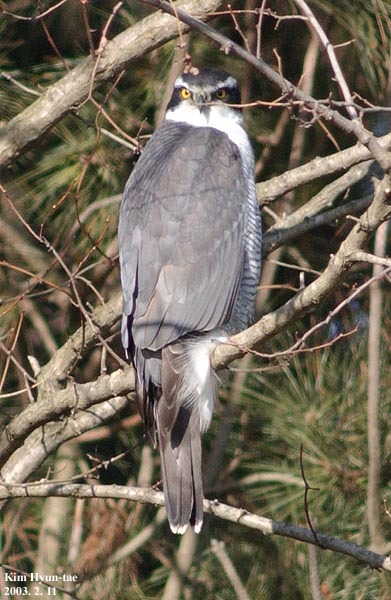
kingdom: Animalia
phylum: Chordata
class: Aves
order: Accipitriformes
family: Accipitridae
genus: Accipiter
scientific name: Accipiter gentilis
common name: Northern goshawk
